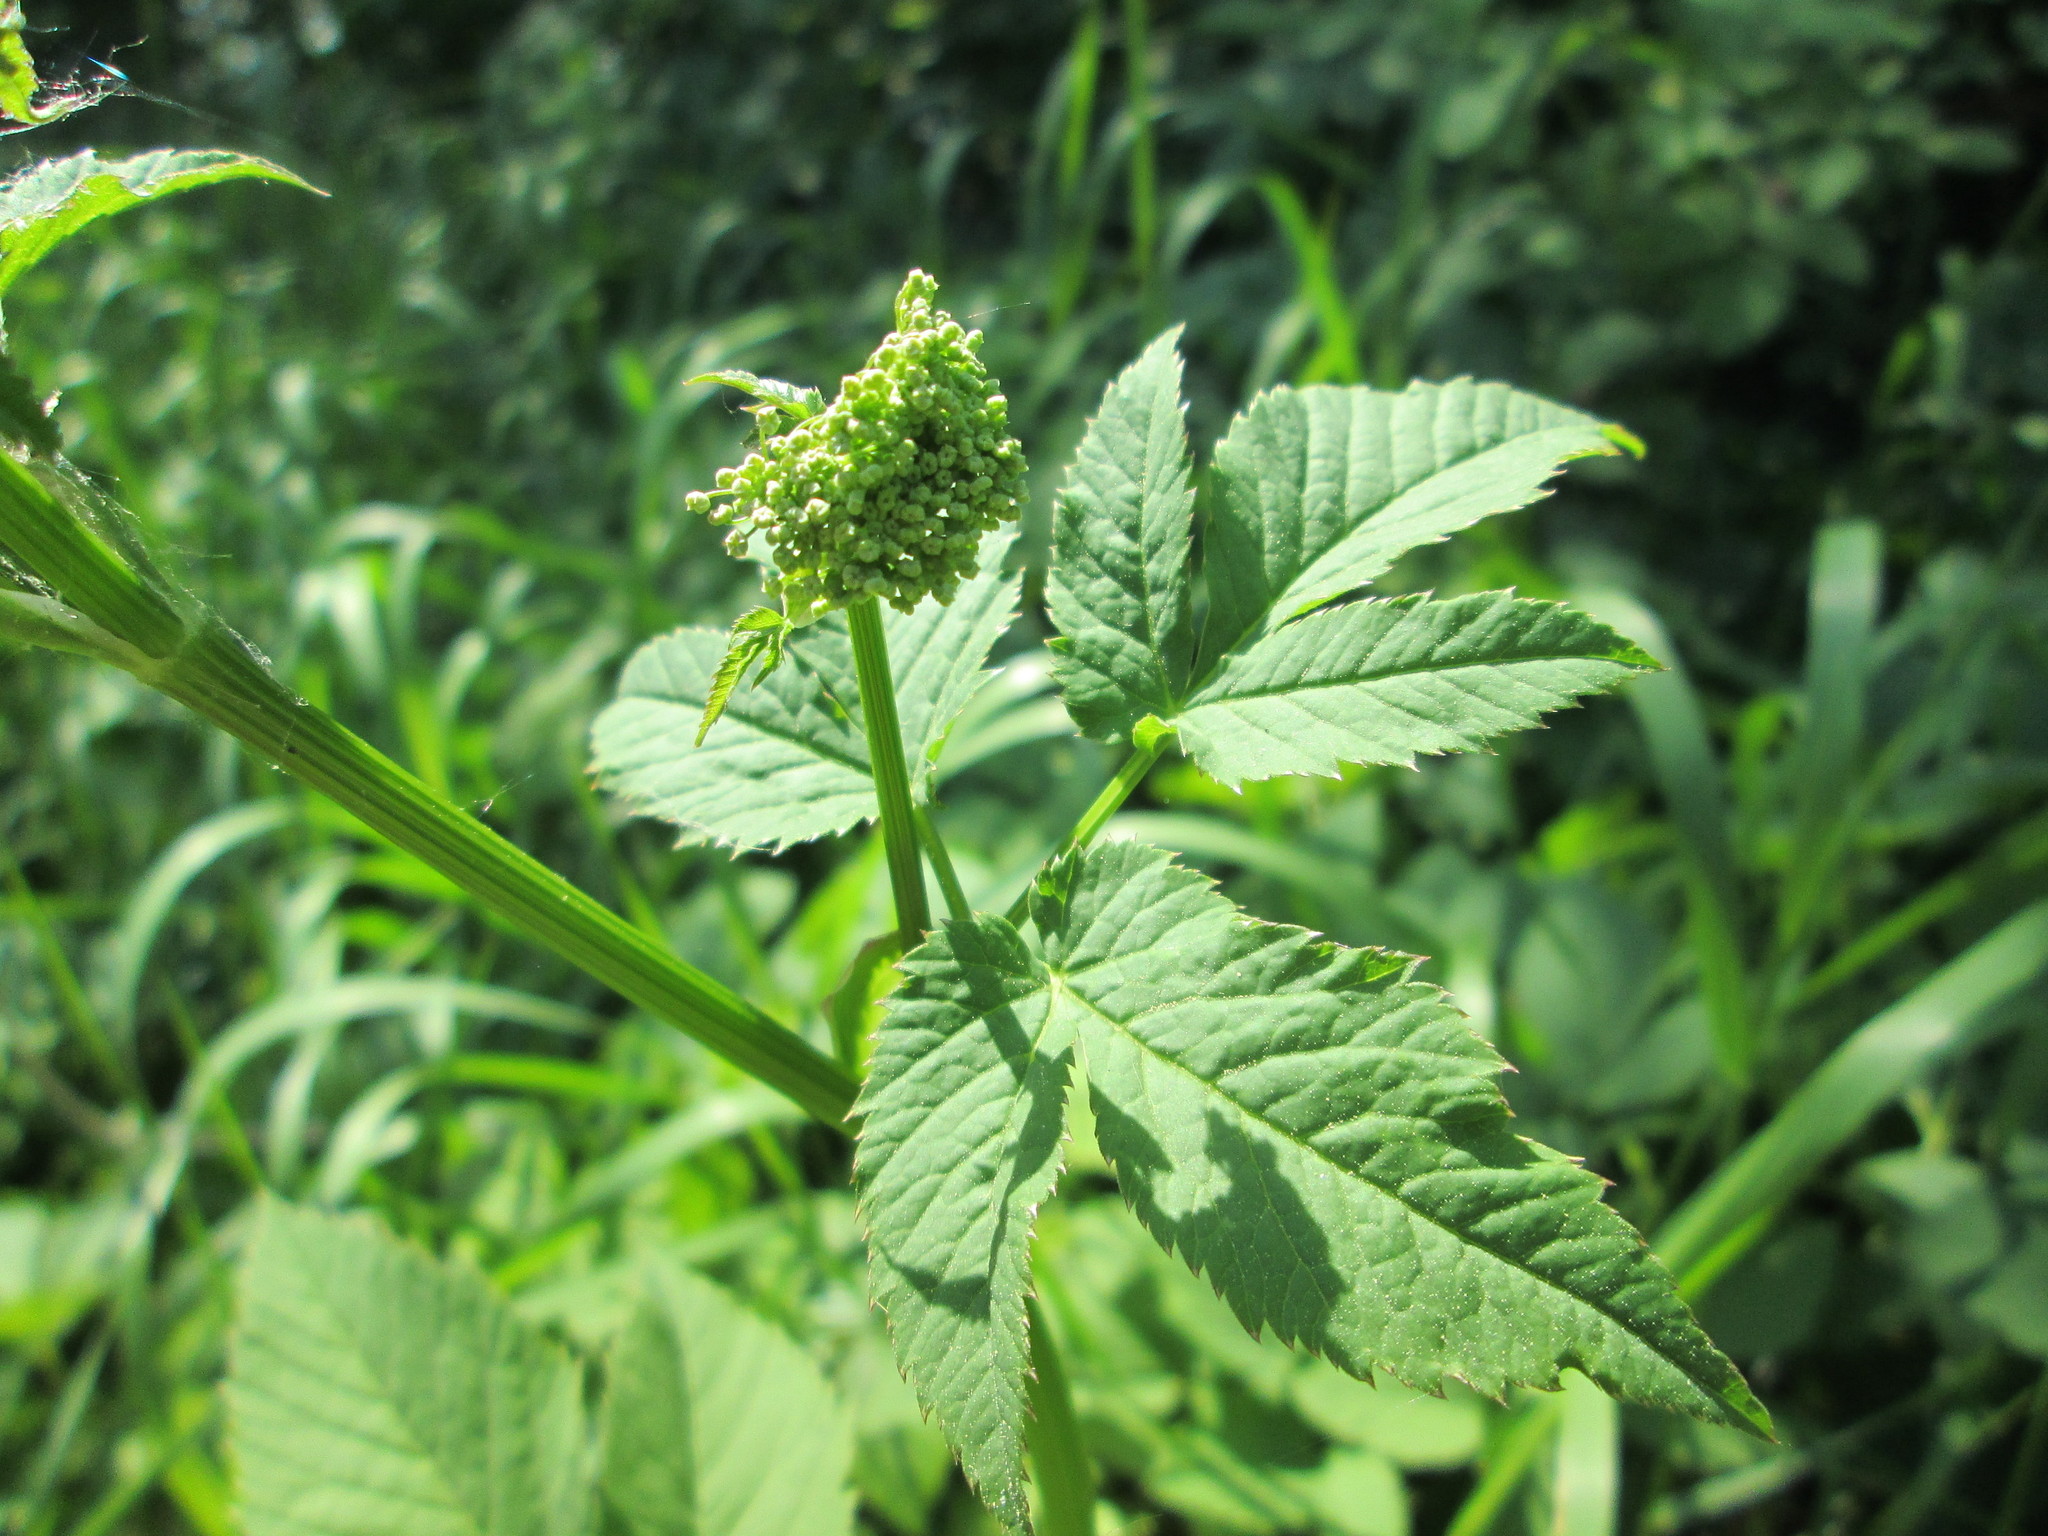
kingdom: Plantae
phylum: Tracheophyta
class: Magnoliopsida
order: Apiales
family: Apiaceae
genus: Aegopodium
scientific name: Aegopodium podagraria
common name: Ground-elder
